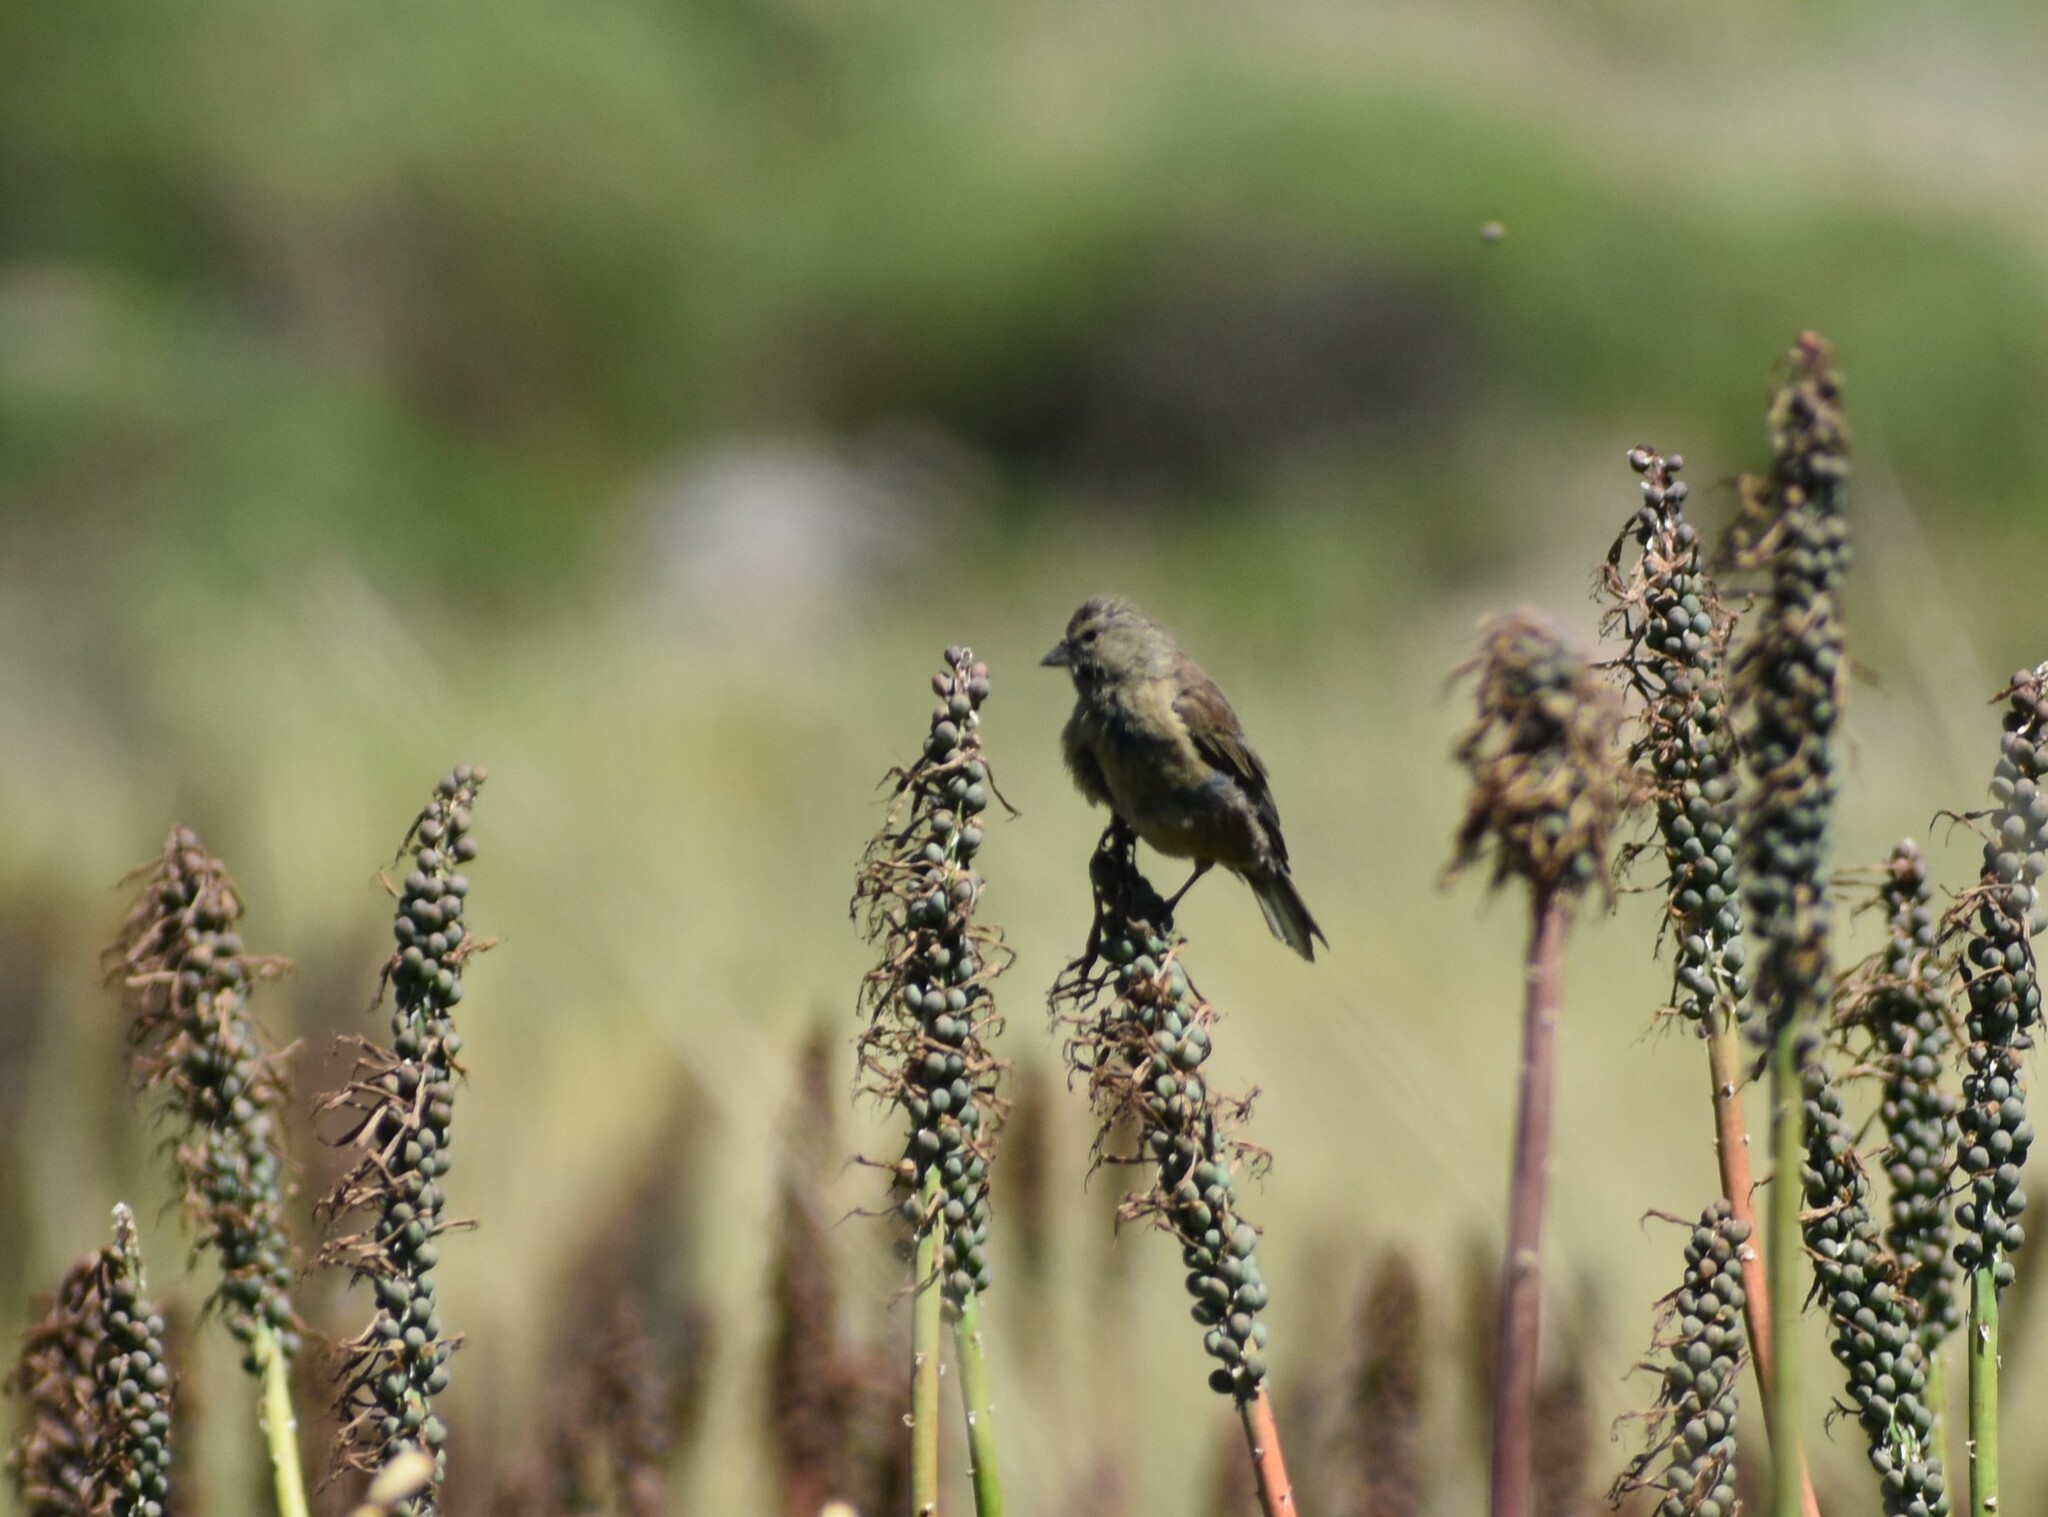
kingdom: Animalia
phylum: Chordata
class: Aves
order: Passeriformes
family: Fringillidae
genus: Crithagra
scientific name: Crithagra symonsi
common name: Drakensberg siskin
